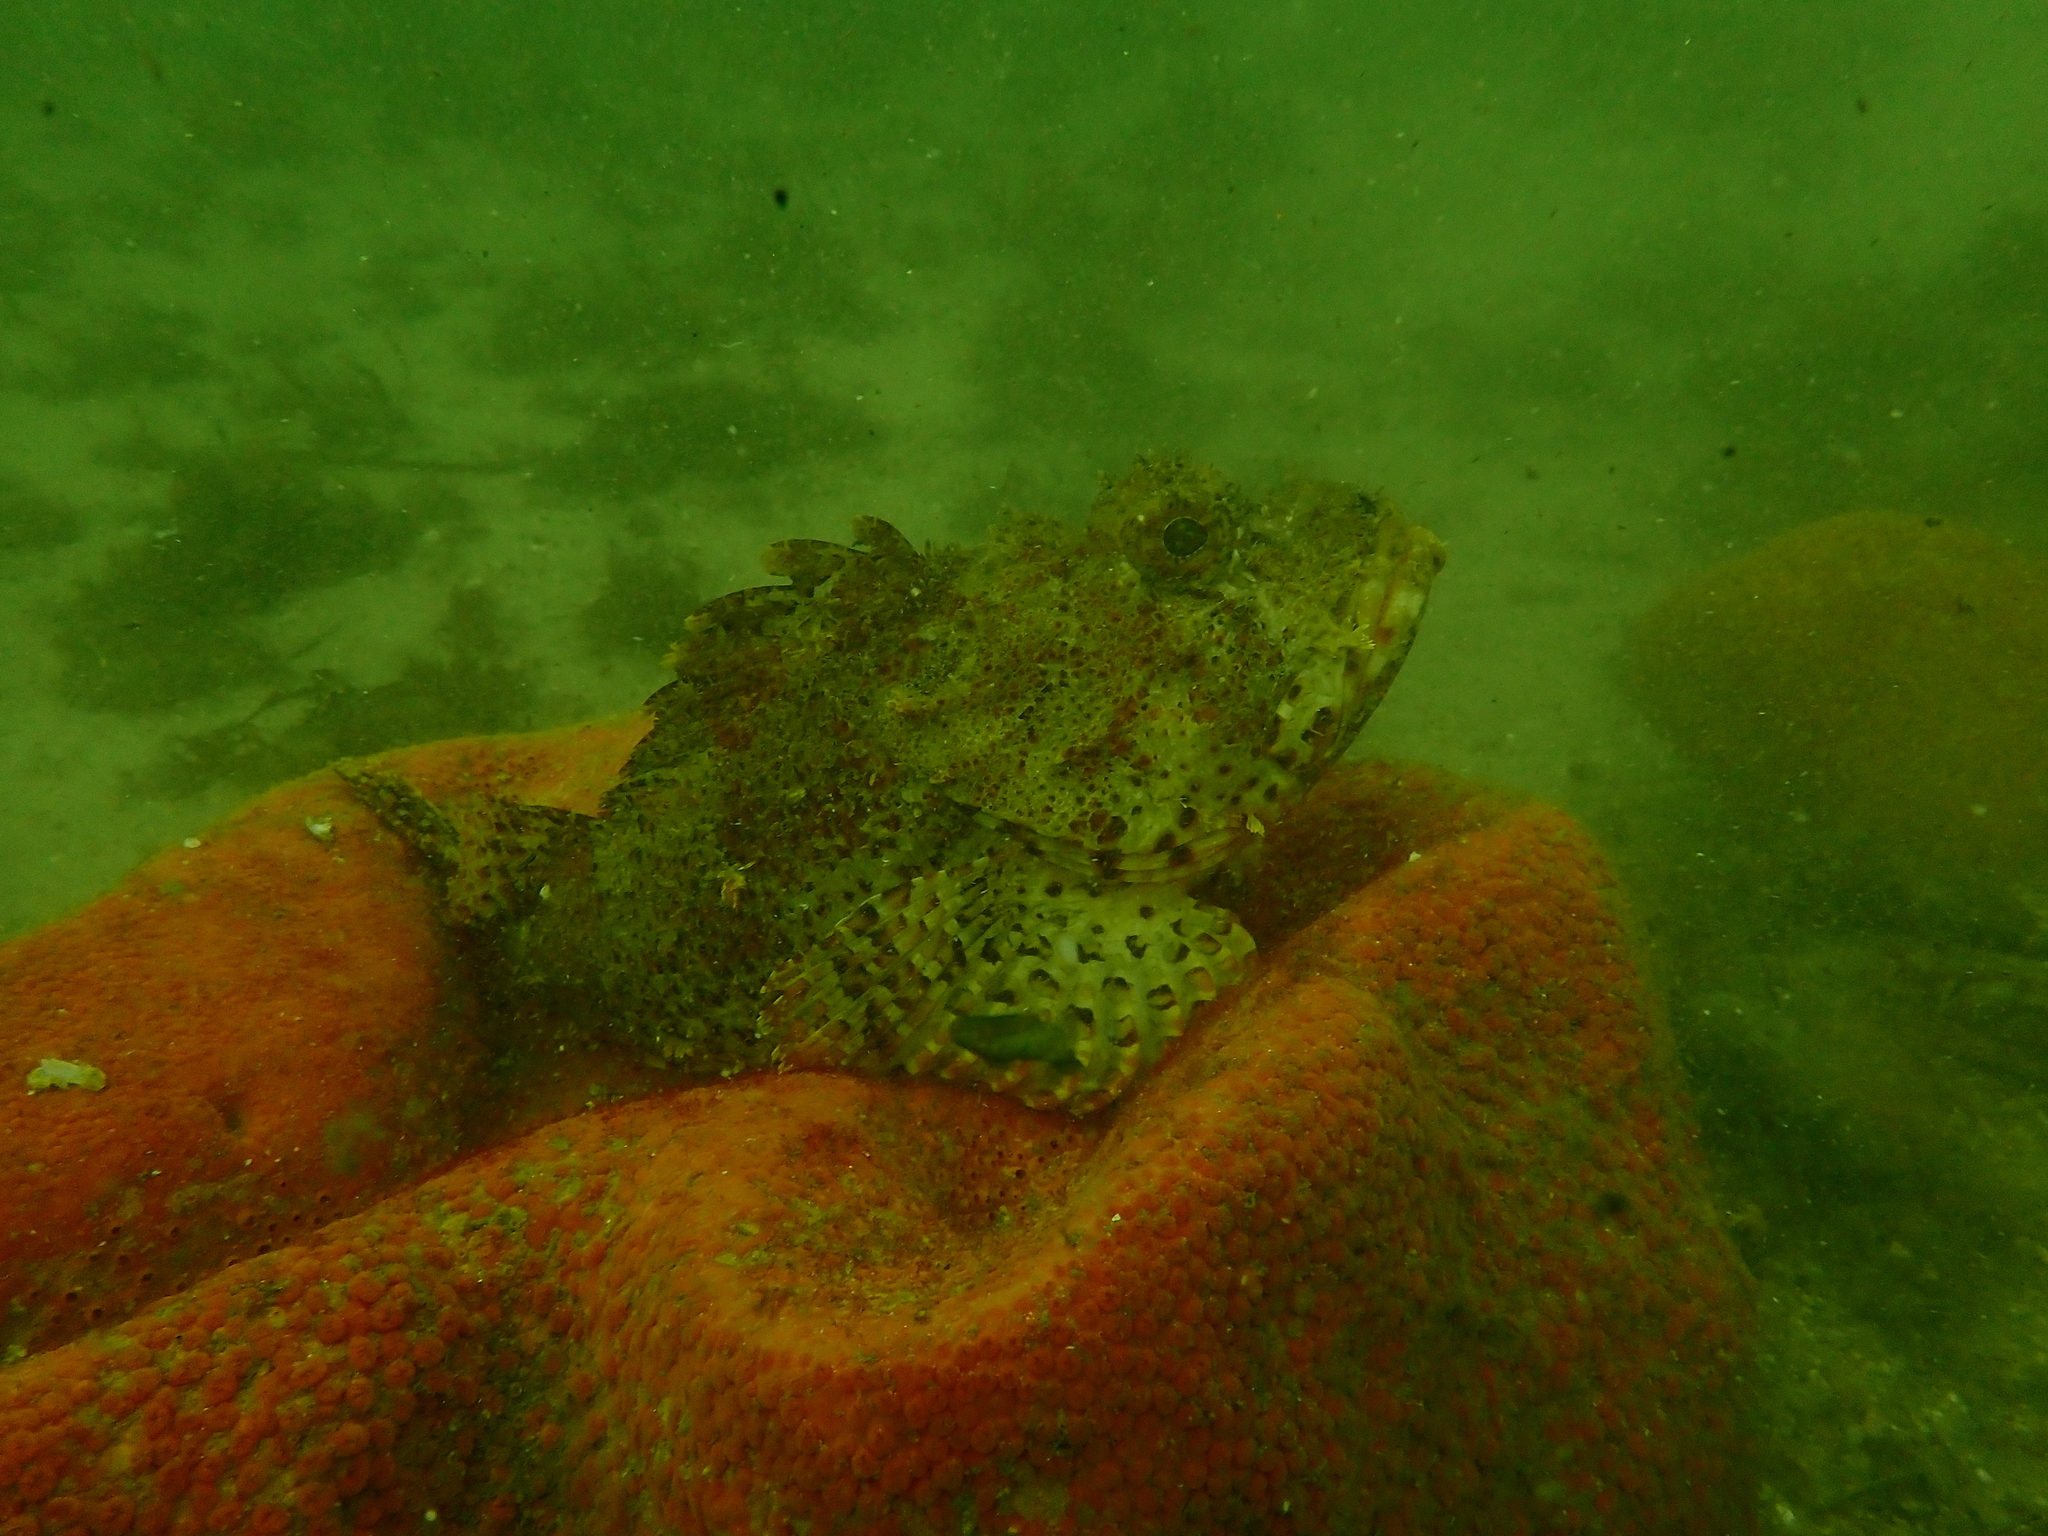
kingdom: Animalia
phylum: Chordata
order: Scorpaeniformes
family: Scorpaenidae
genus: Scorpaena
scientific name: Scorpaena jacksoniensis
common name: Eastern red scorpionfish
